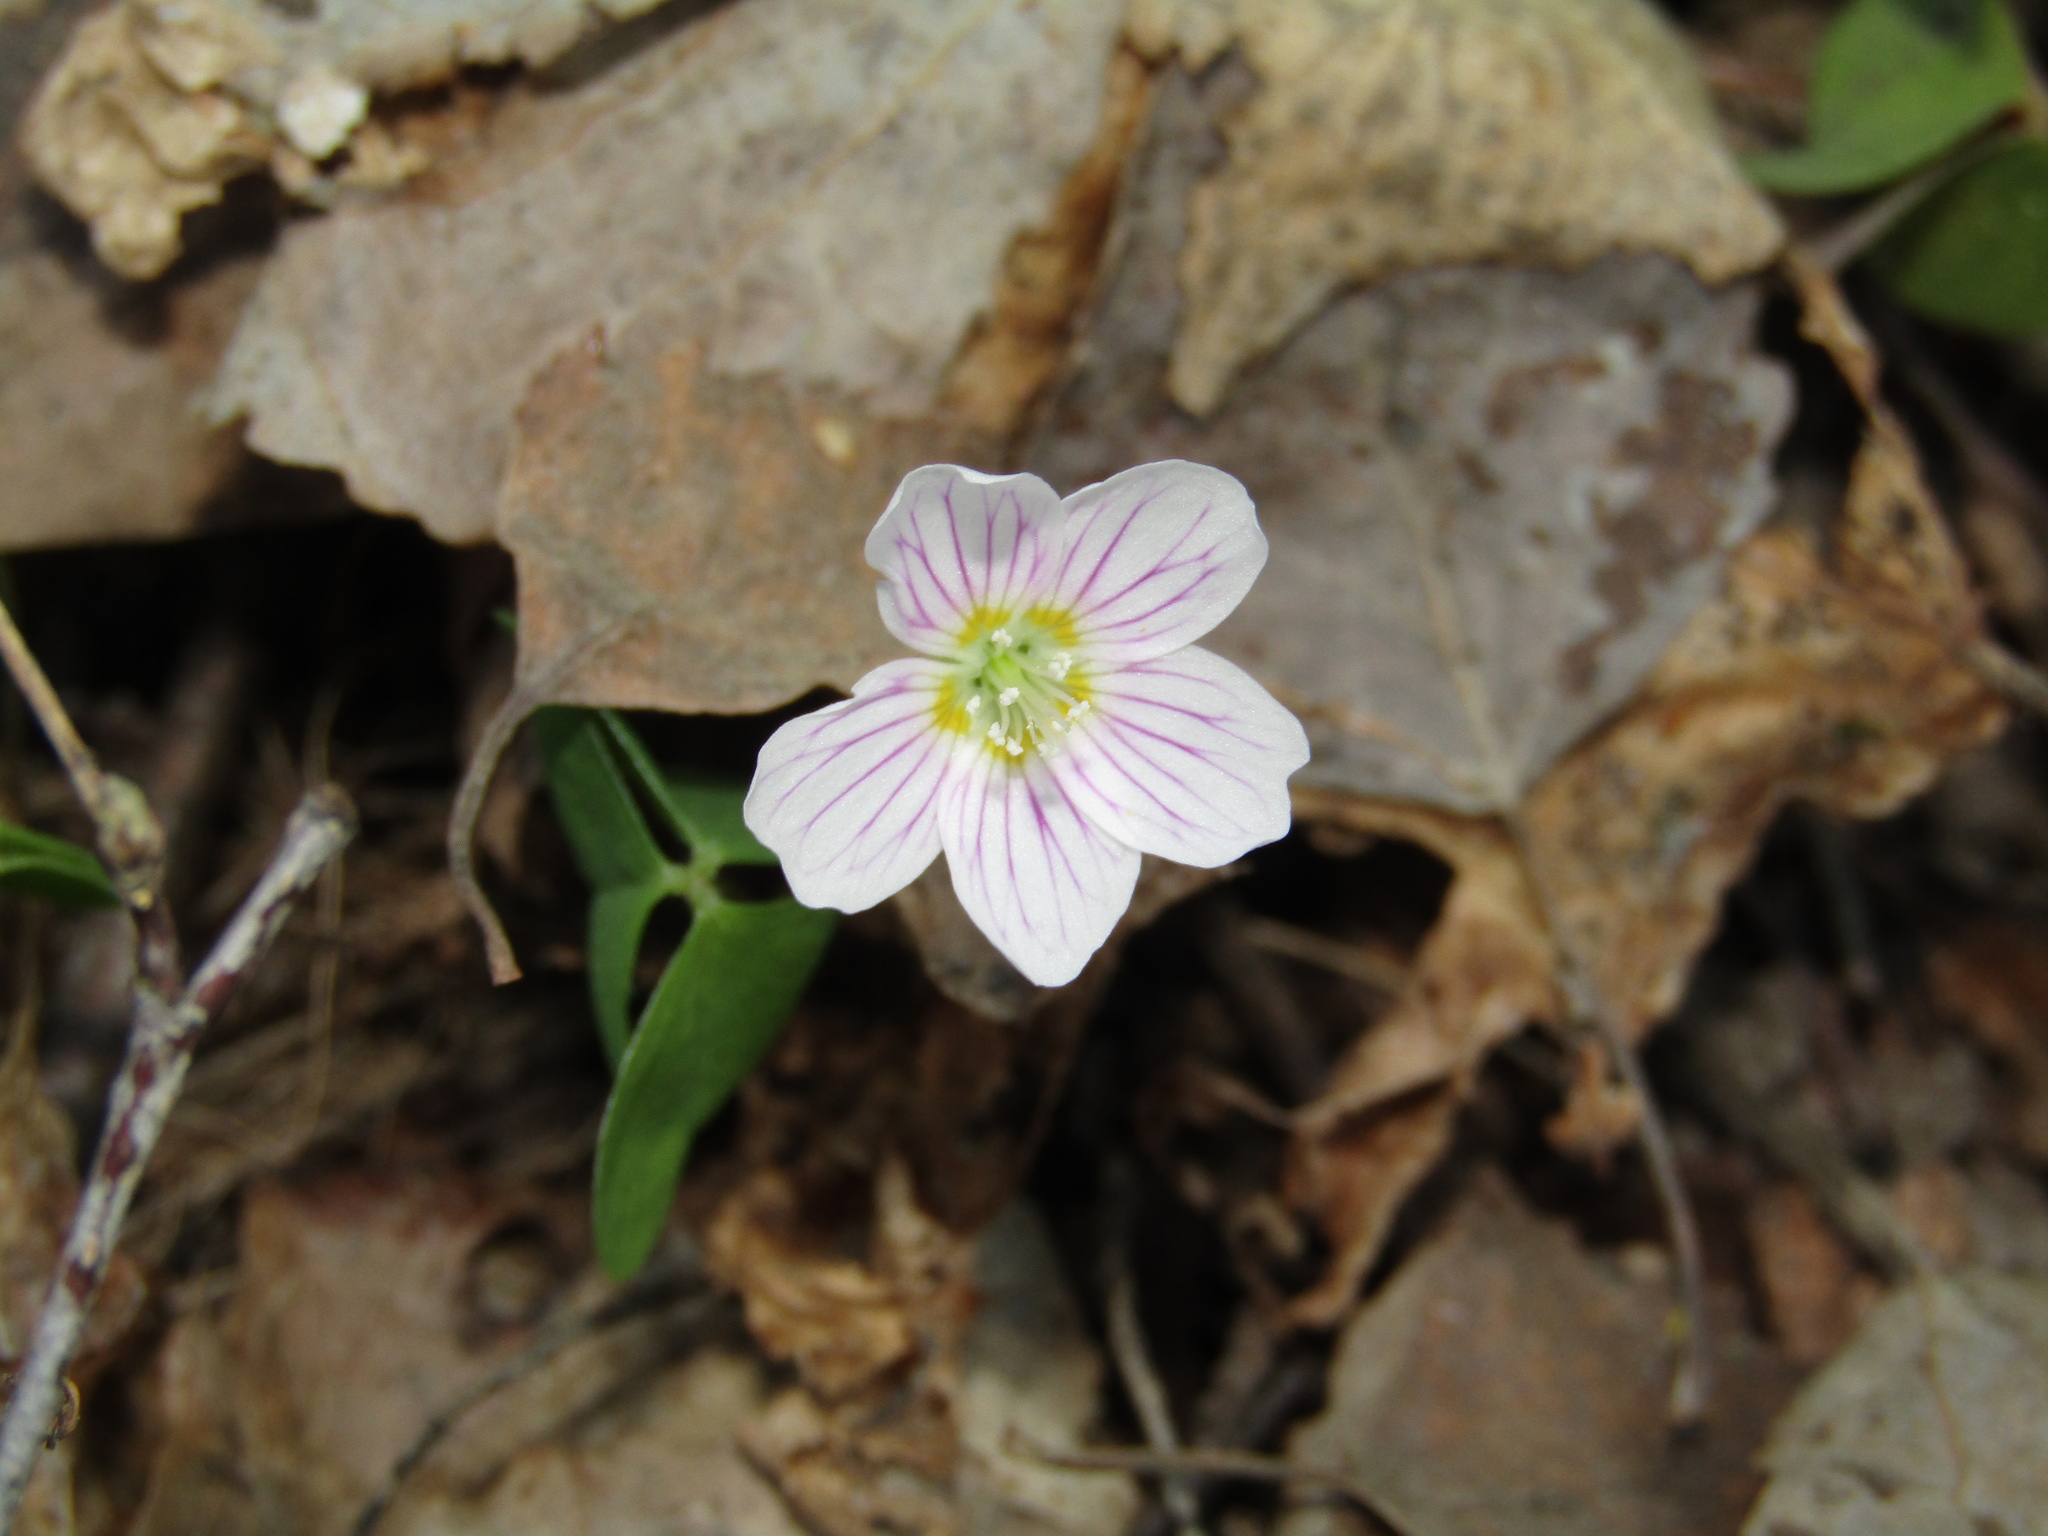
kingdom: Plantae
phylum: Tracheophyta
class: Magnoliopsida
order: Oxalidales
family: Oxalidaceae
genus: Oxalis
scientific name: Oxalis acetosella
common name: Wood-sorrel
